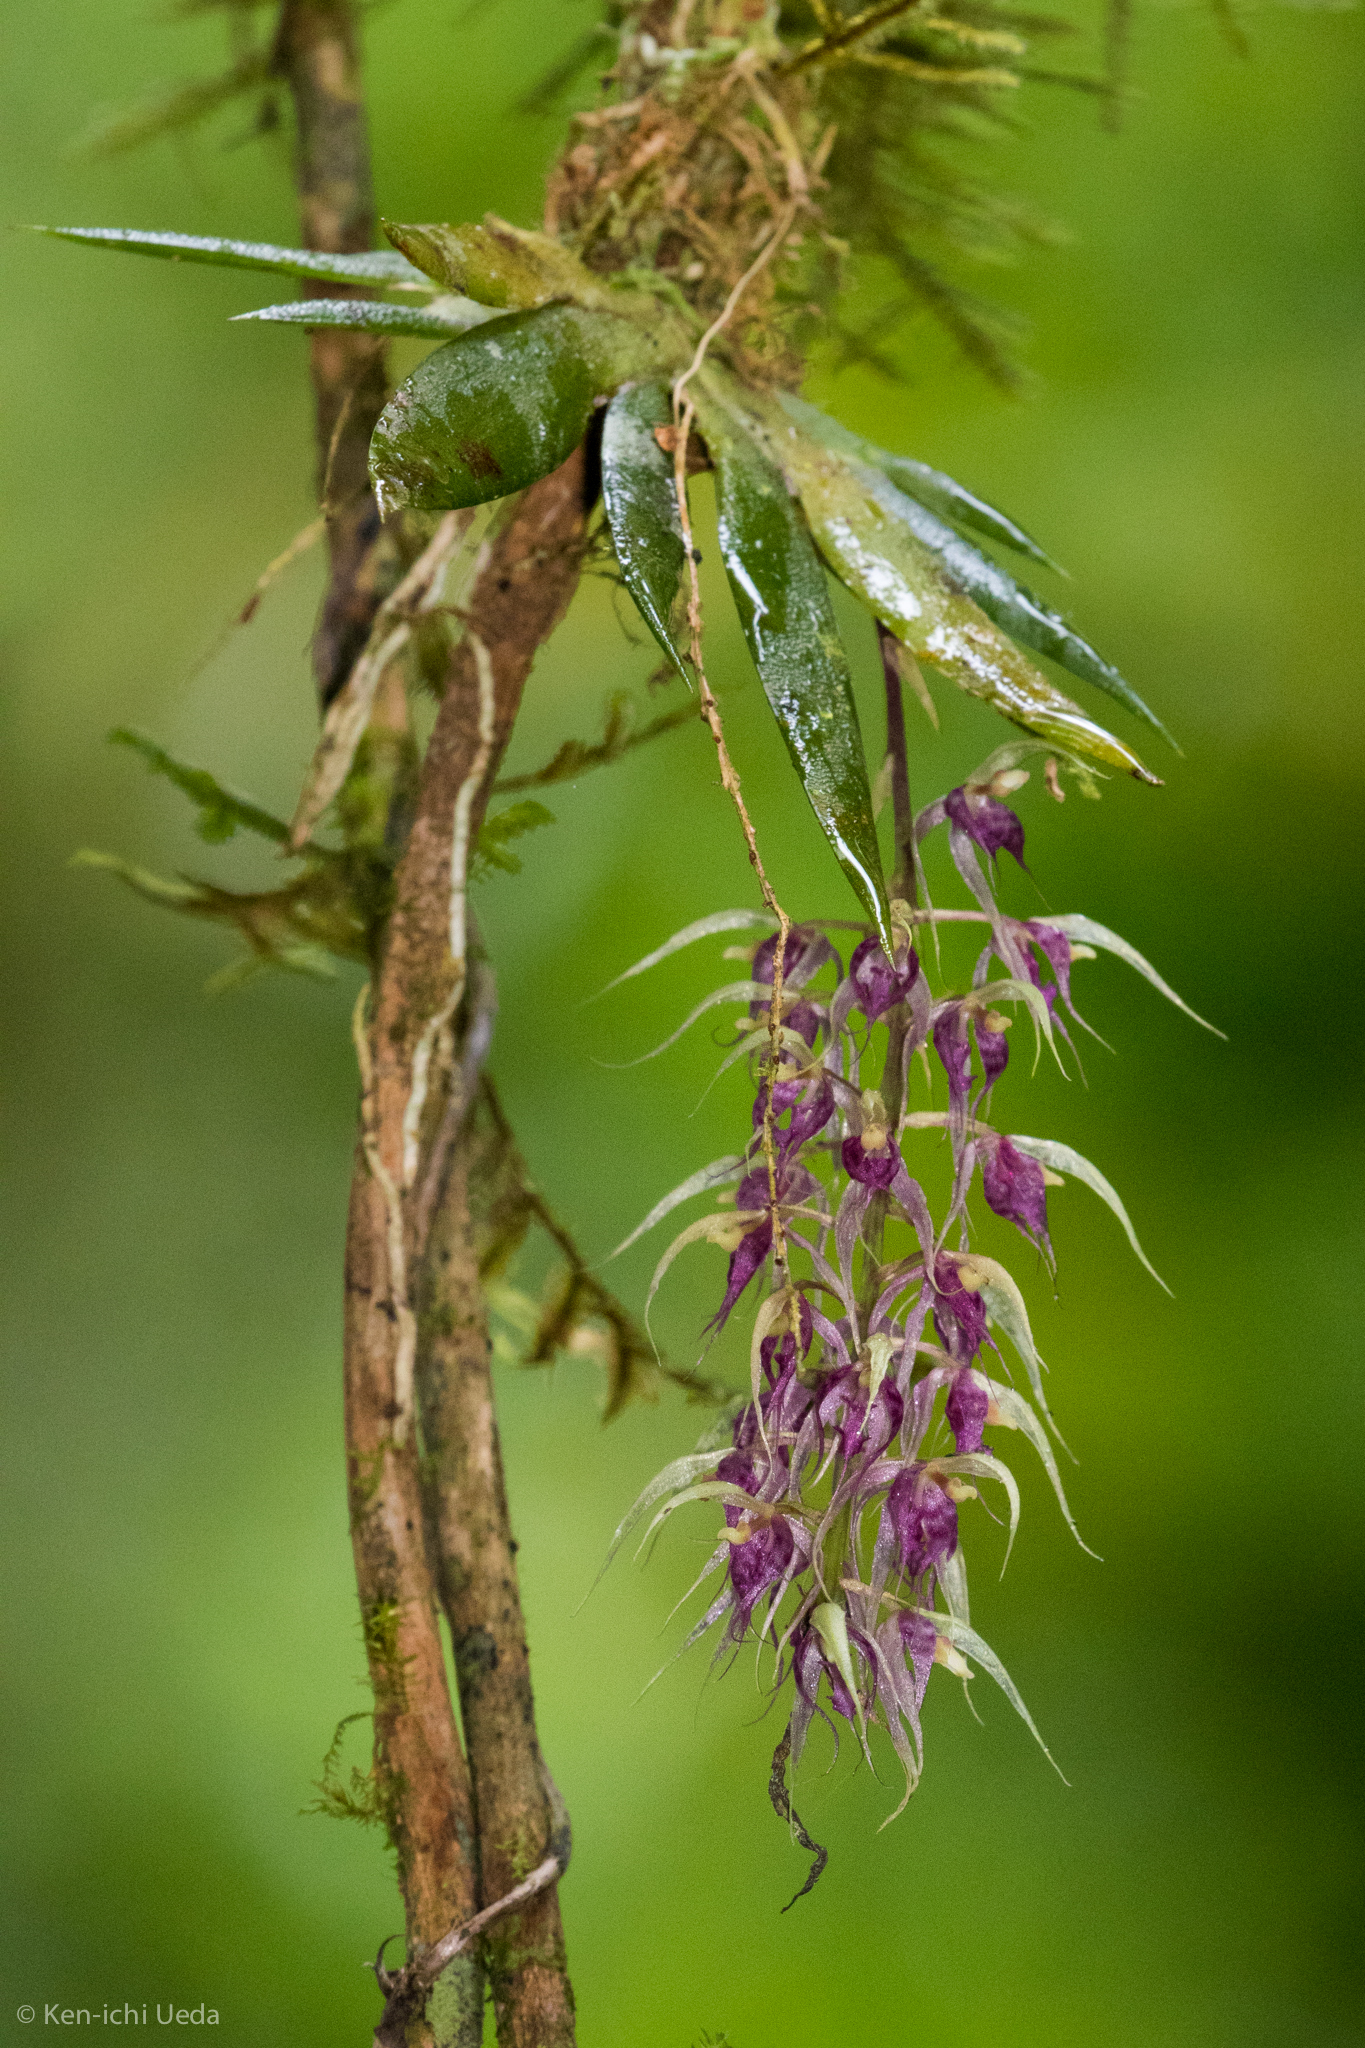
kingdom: Plantae
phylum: Tracheophyta
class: Liliopsida
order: Asparagales
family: Orchidaceae
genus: Macroclinium
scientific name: Macroclinium ramonense
